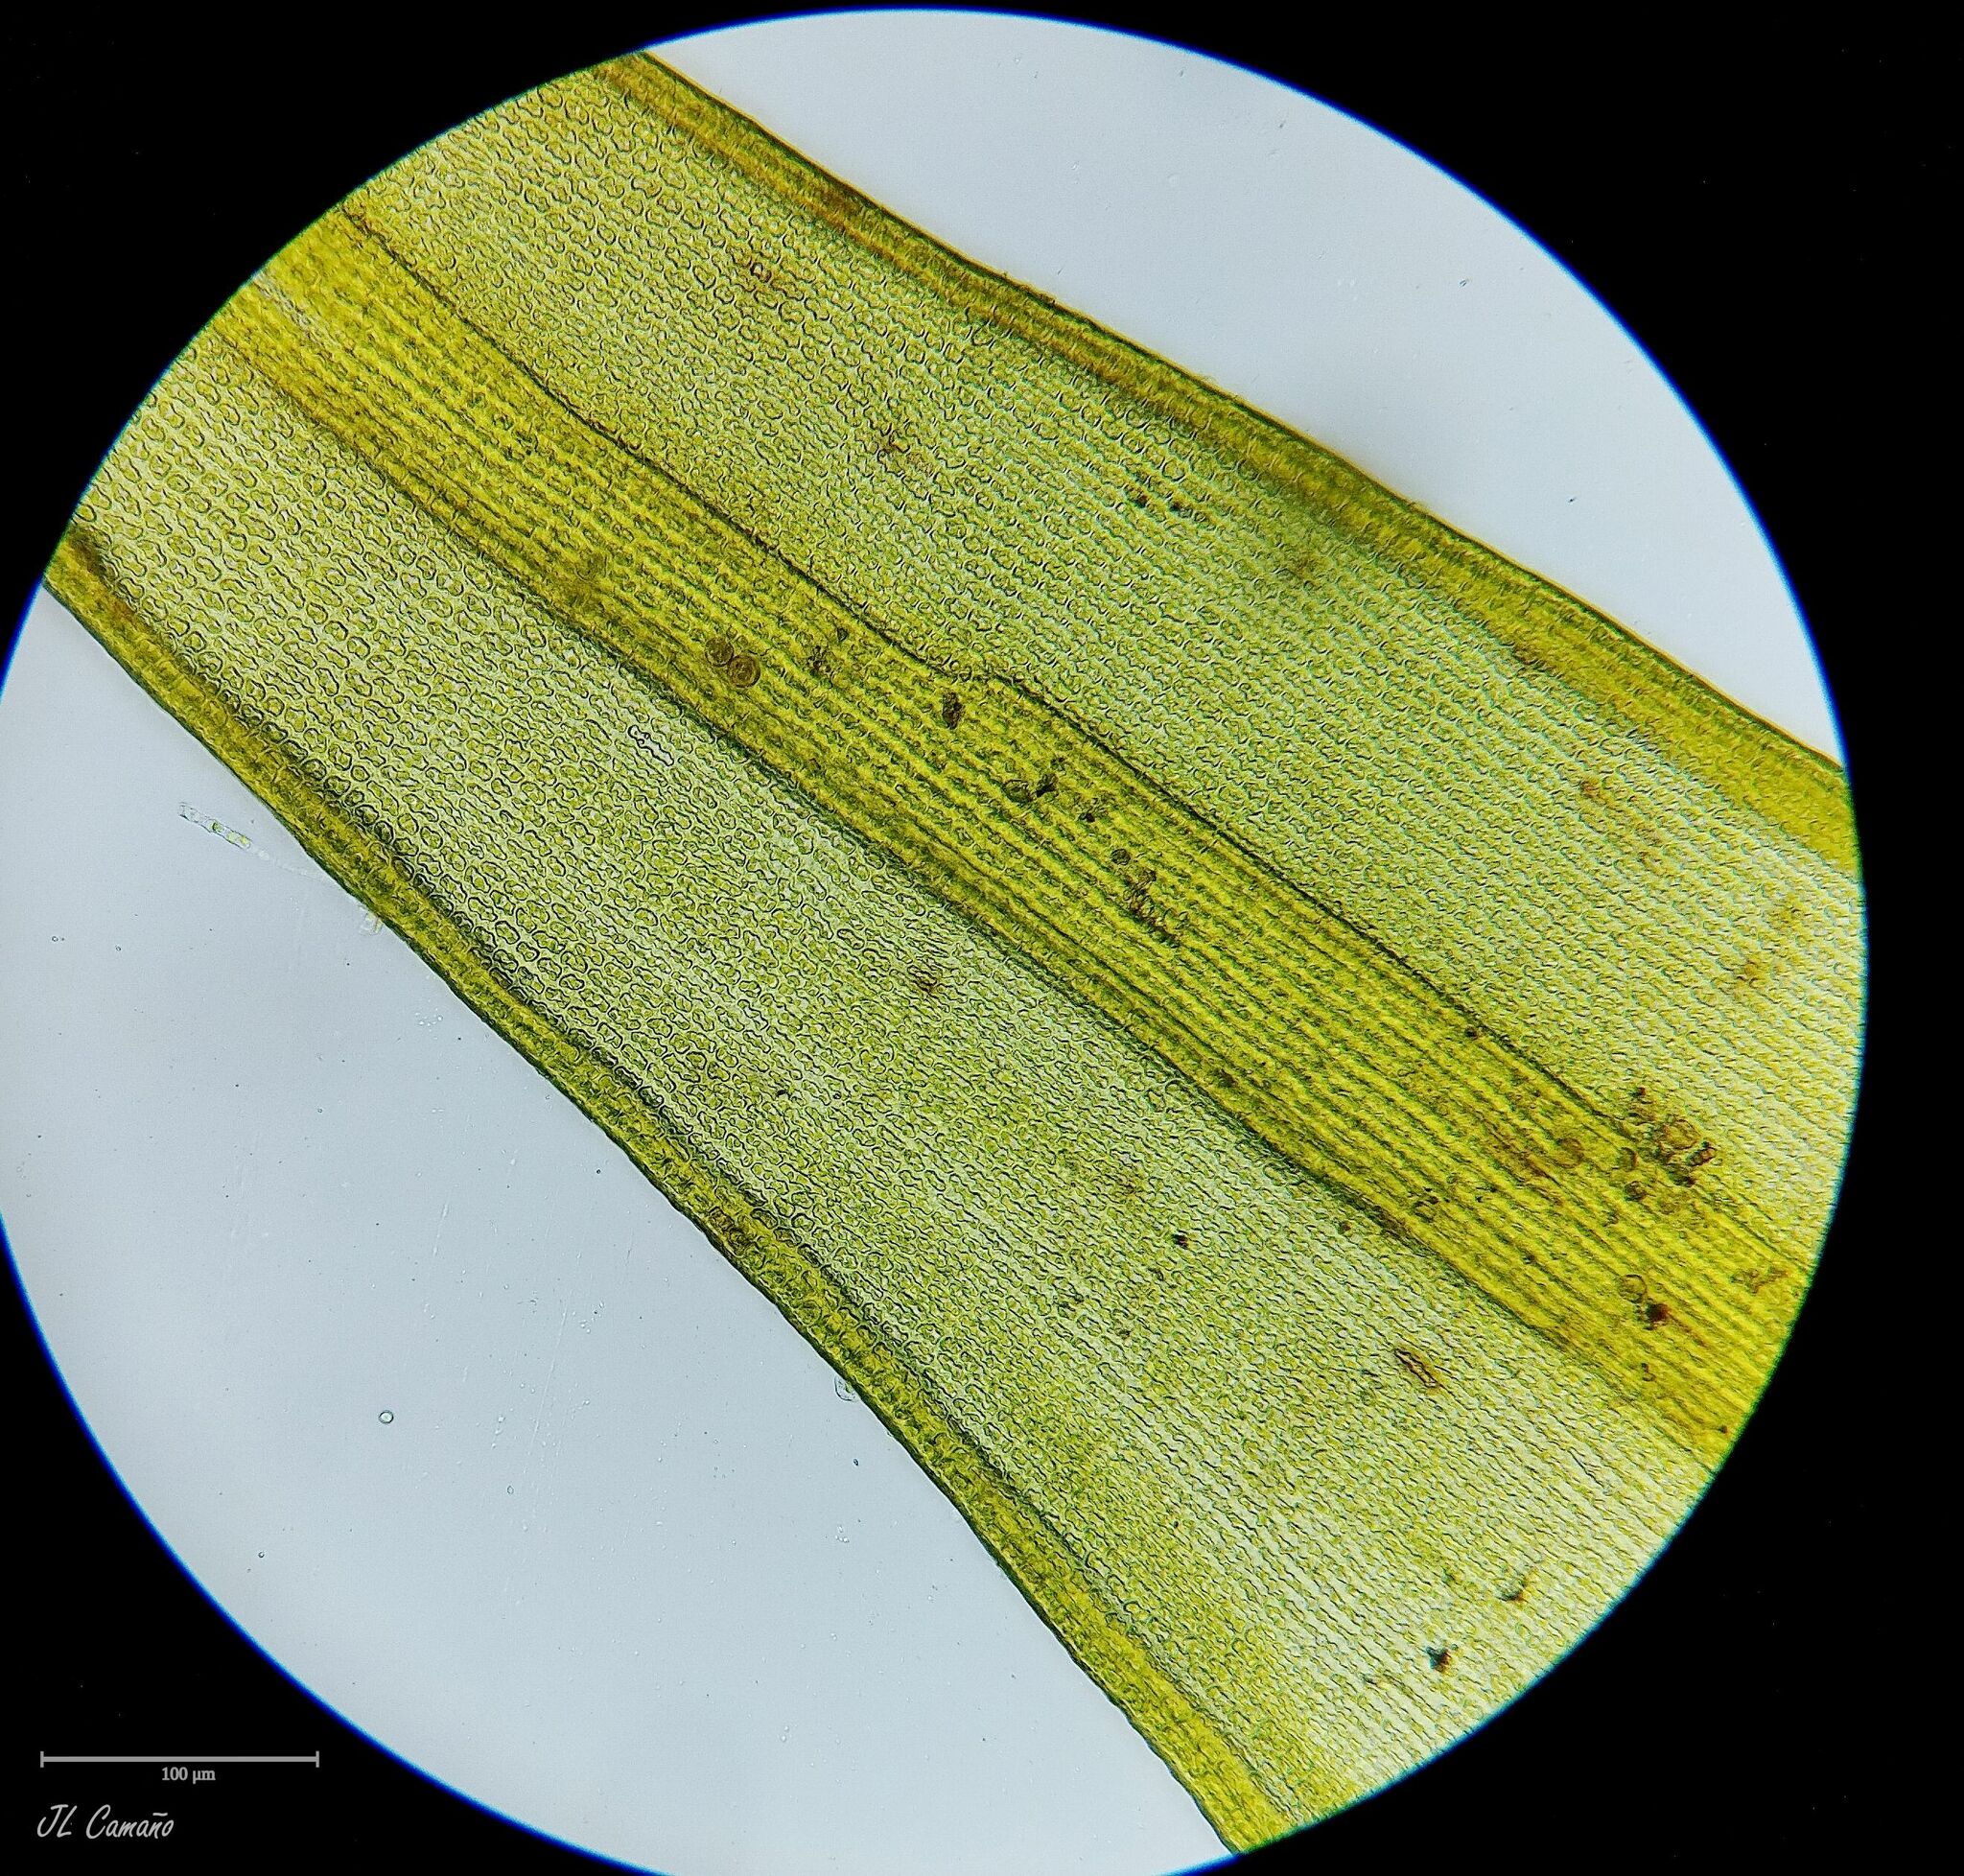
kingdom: Plantae
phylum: Bryophyta
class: Bryopsida
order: Grimmiales
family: Grimmiaceae
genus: Bucklandiella
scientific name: Bucklandiella heterosticha
